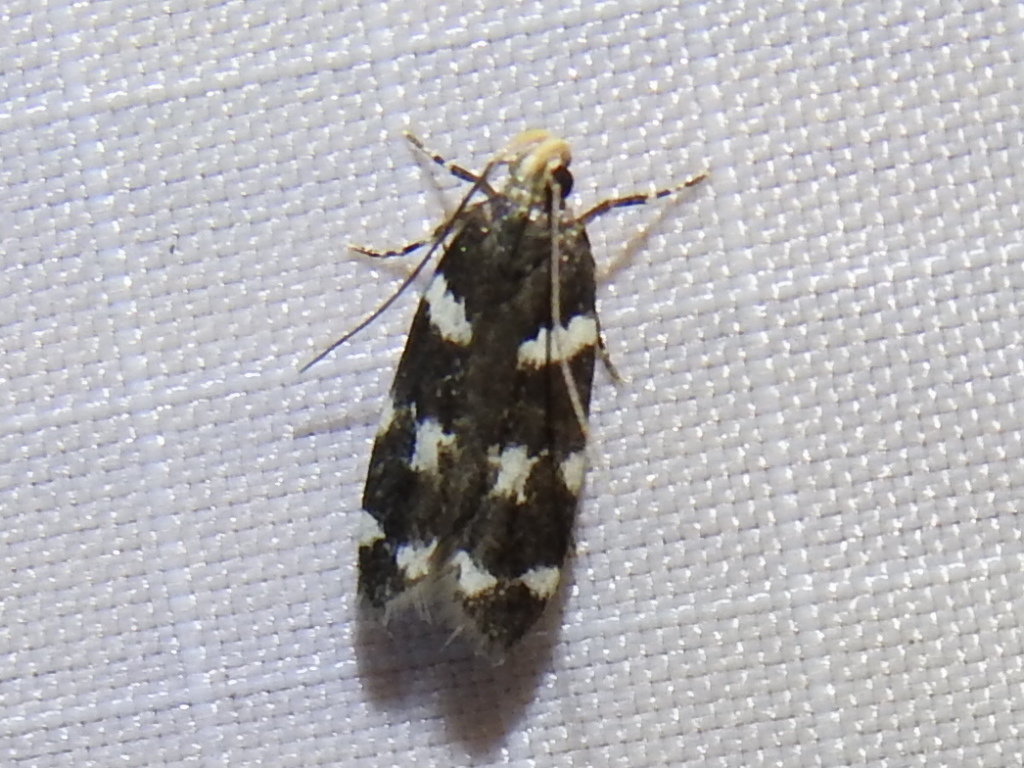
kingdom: Animalia
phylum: Arthropoda
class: Insecta
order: Lepidoptera
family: Gelechiidae
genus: Fascista
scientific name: Fascista quinella
